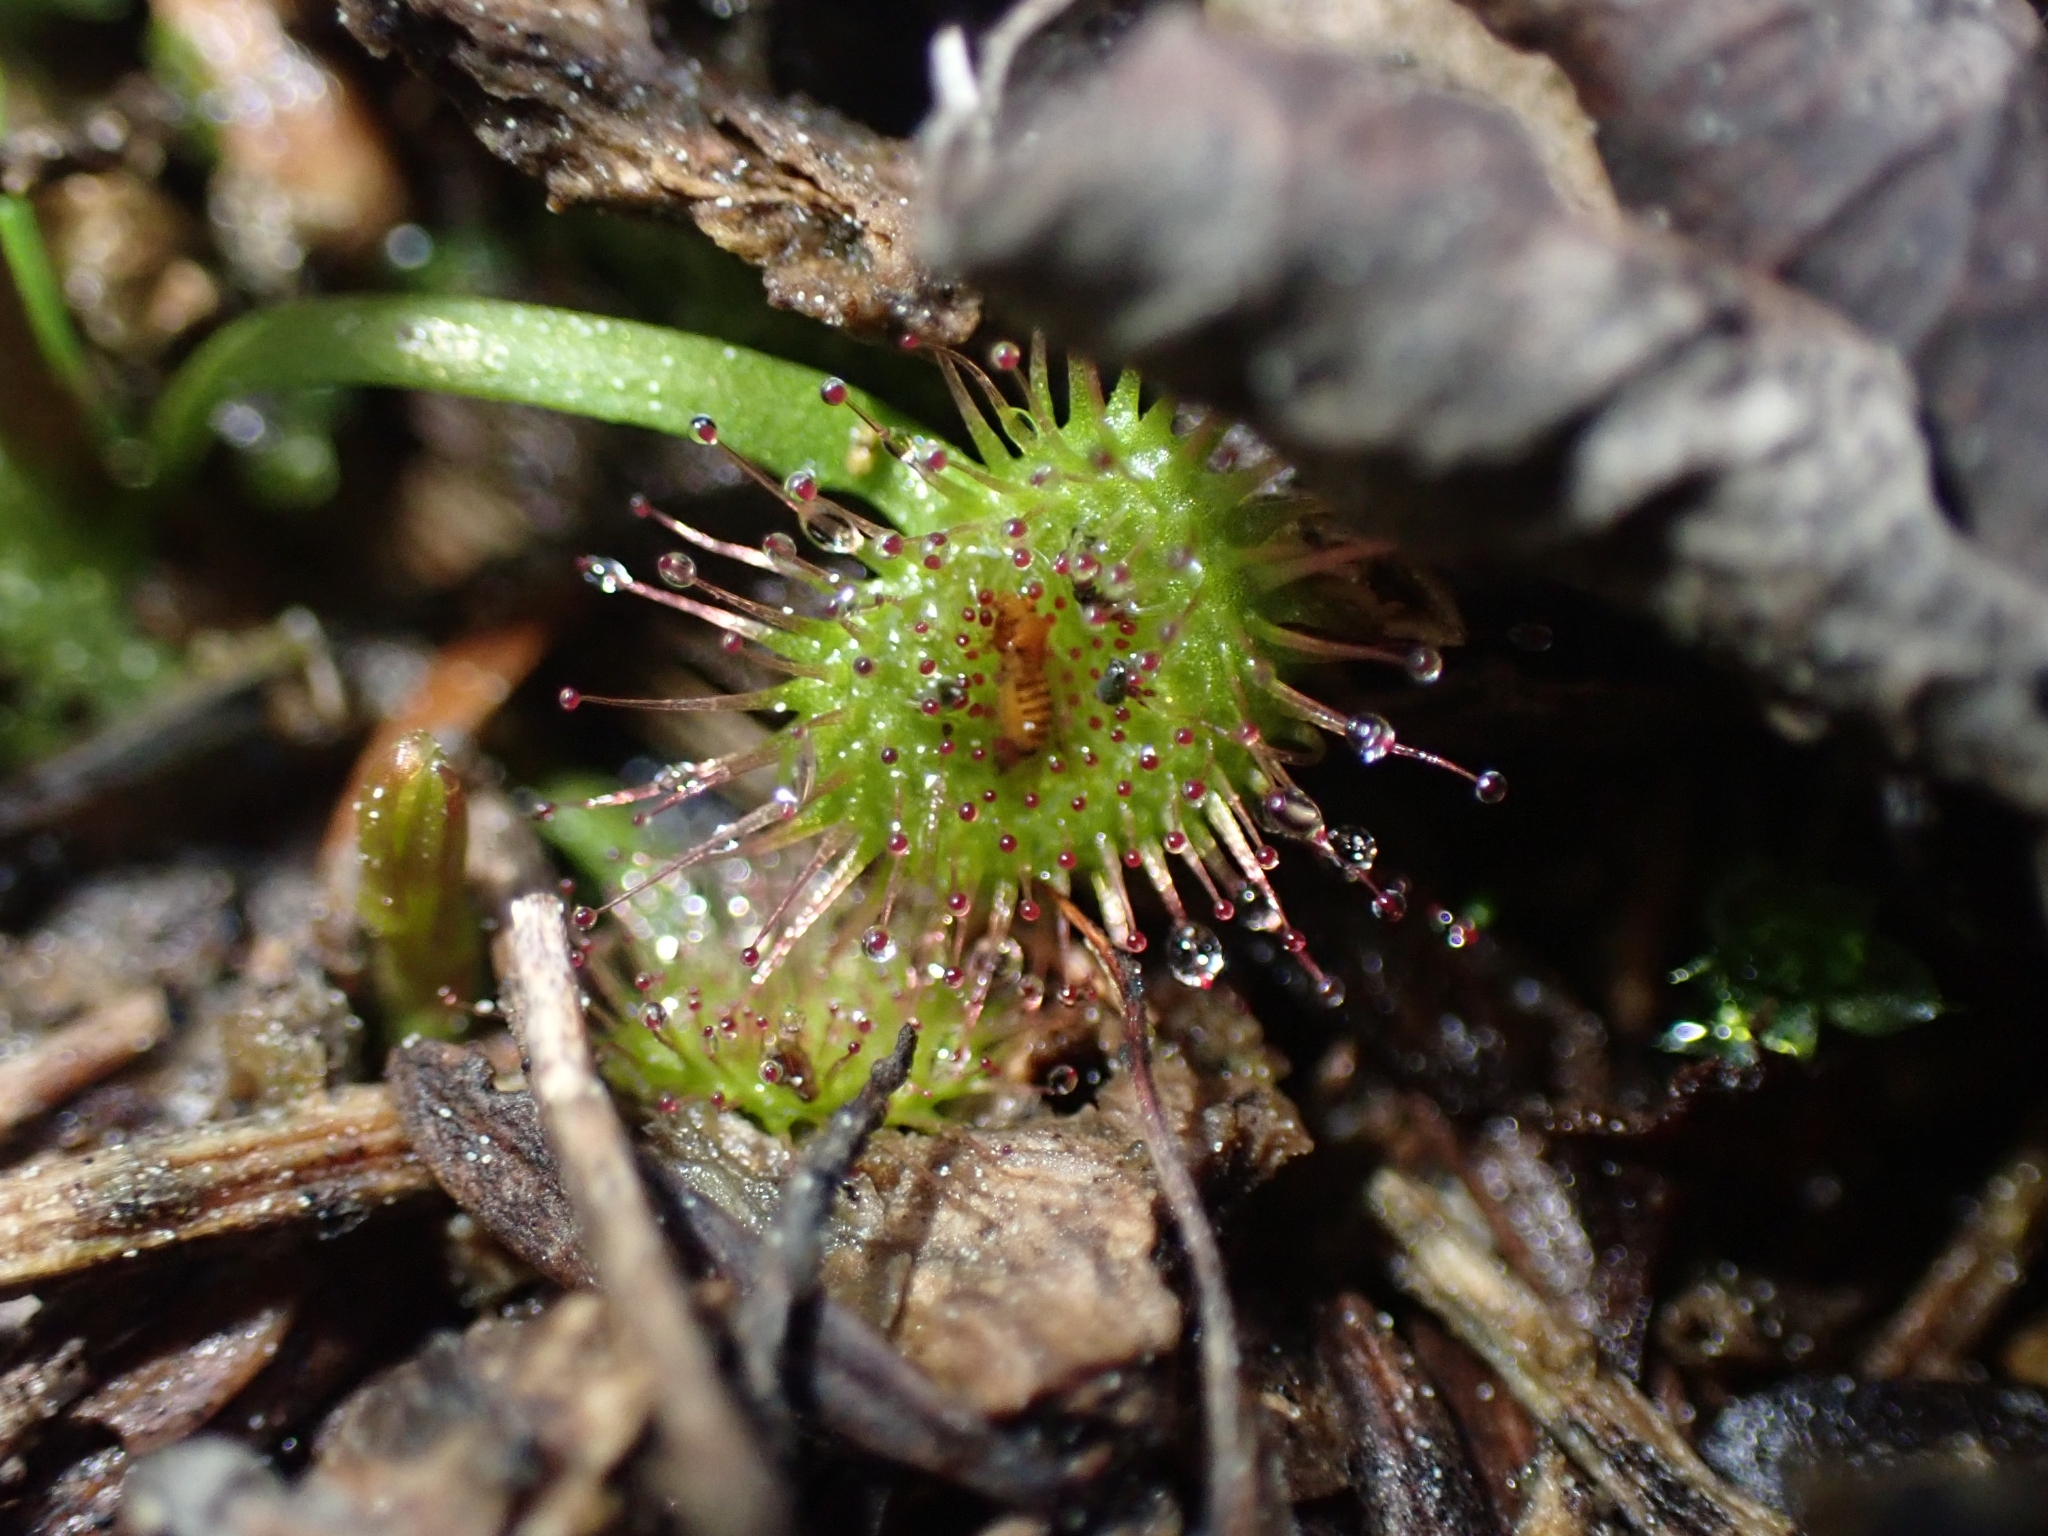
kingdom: Plantae
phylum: Tracheophyta
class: Magnoliopsida
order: Caryophyllales
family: Droseraceae
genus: Drosera
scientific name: Drosera peltata
